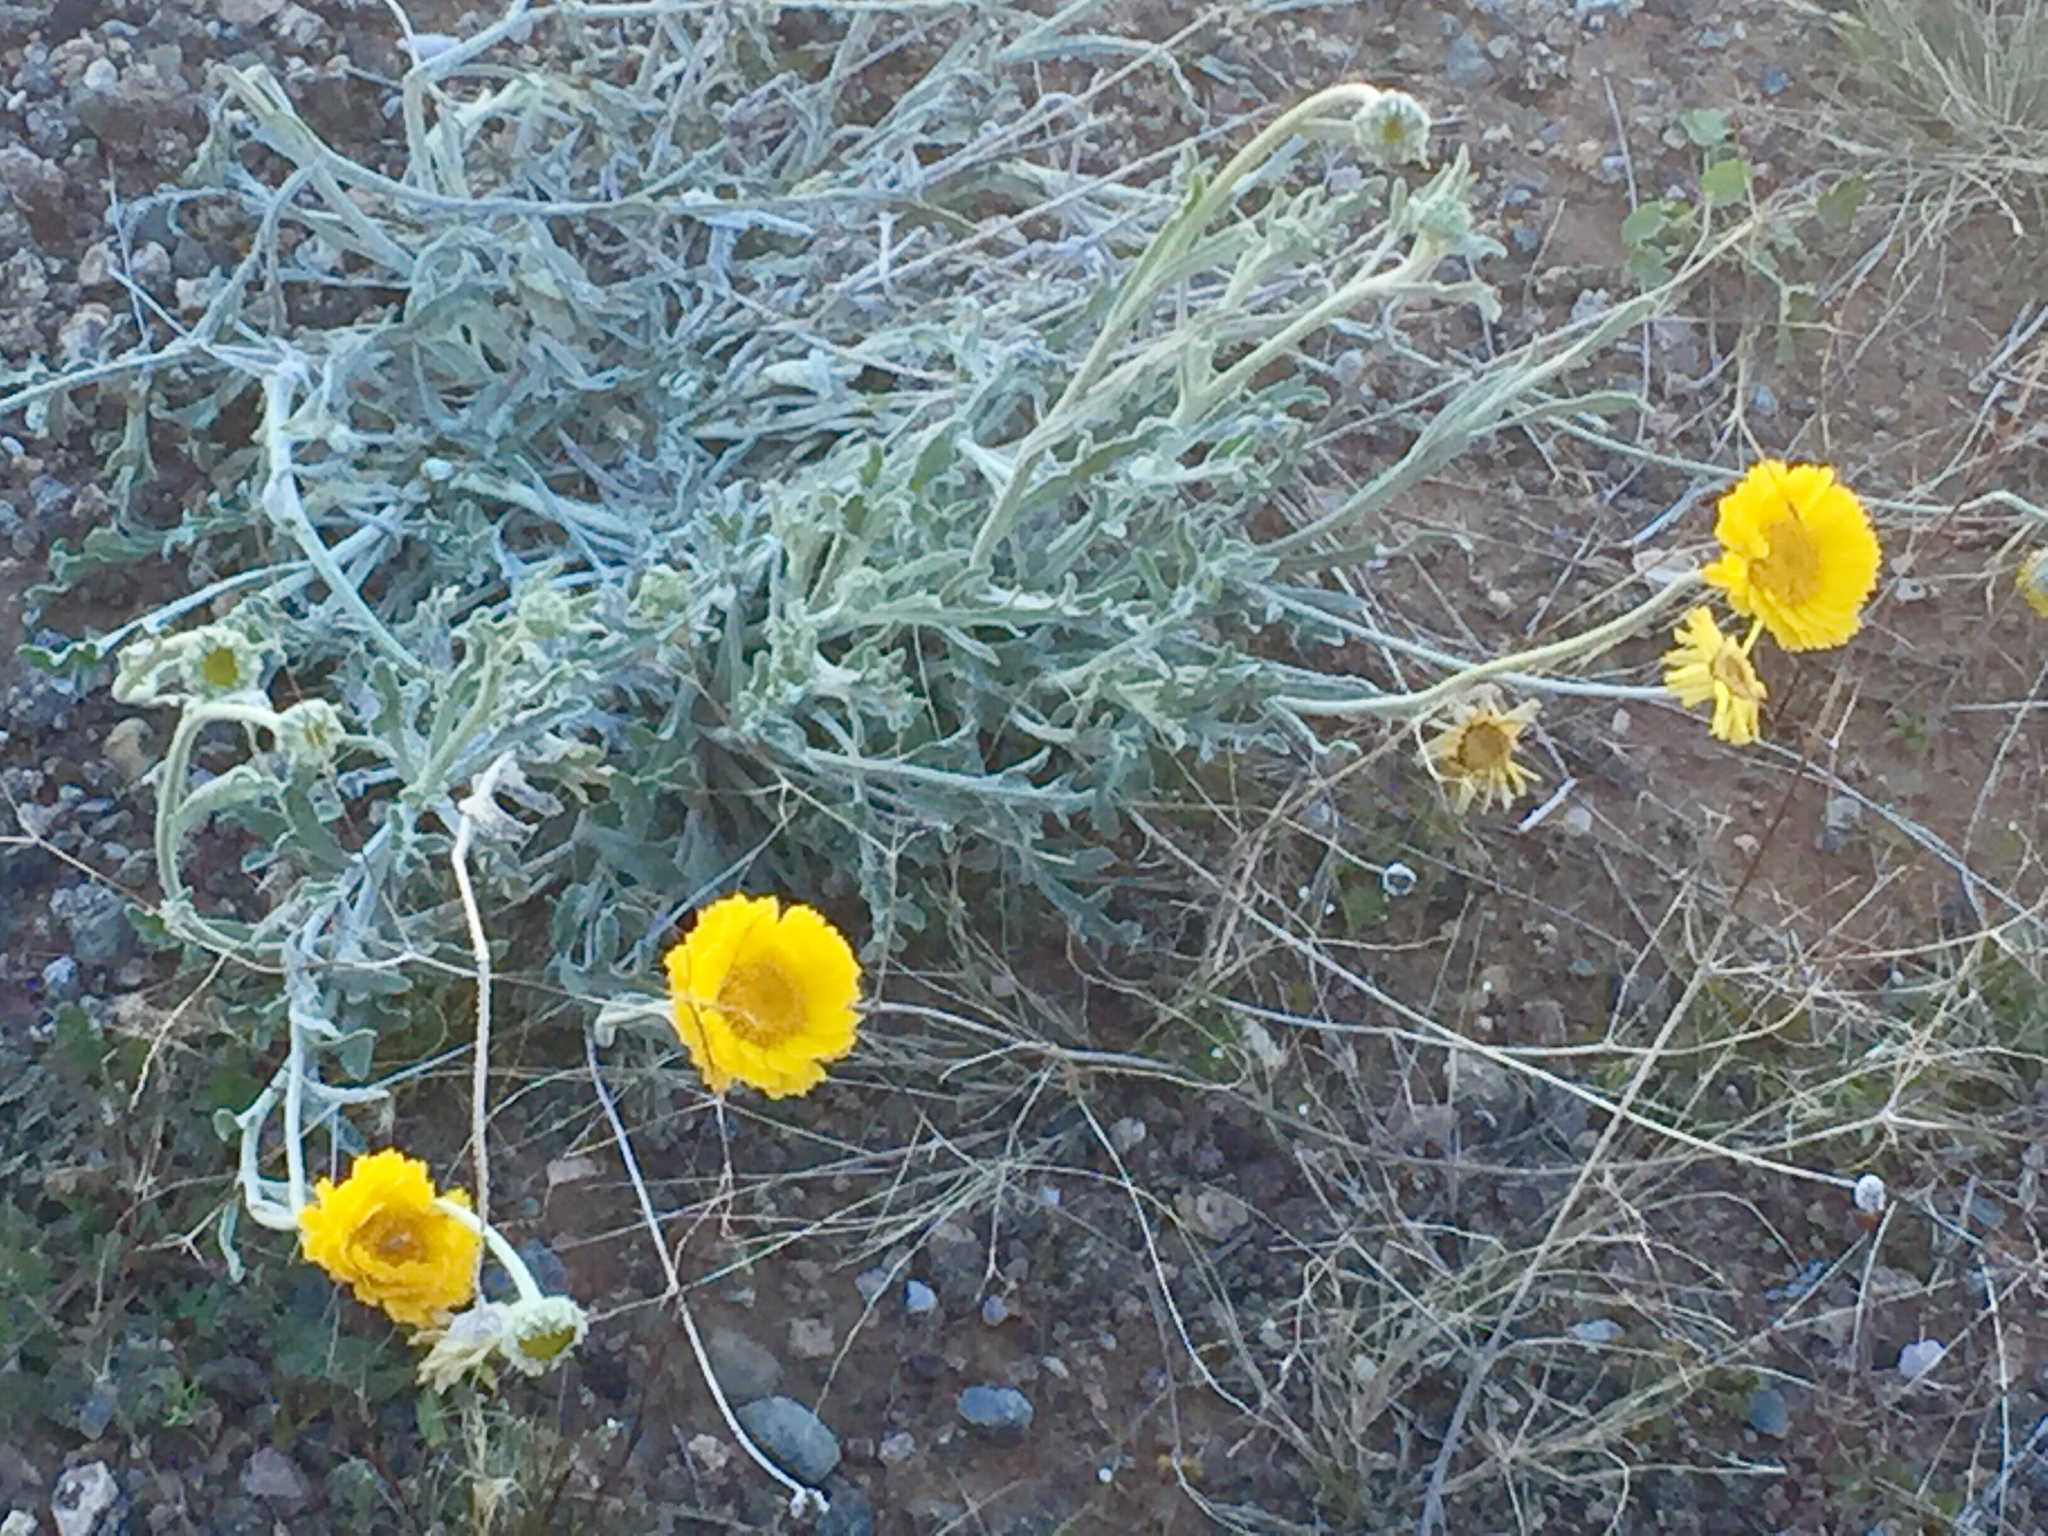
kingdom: Plantae
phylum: Tracheophyta
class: Magnoliopsida
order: Asterales
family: Asteraceae
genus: Baileya
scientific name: Baileya multiradiata
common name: Desert-marigold
